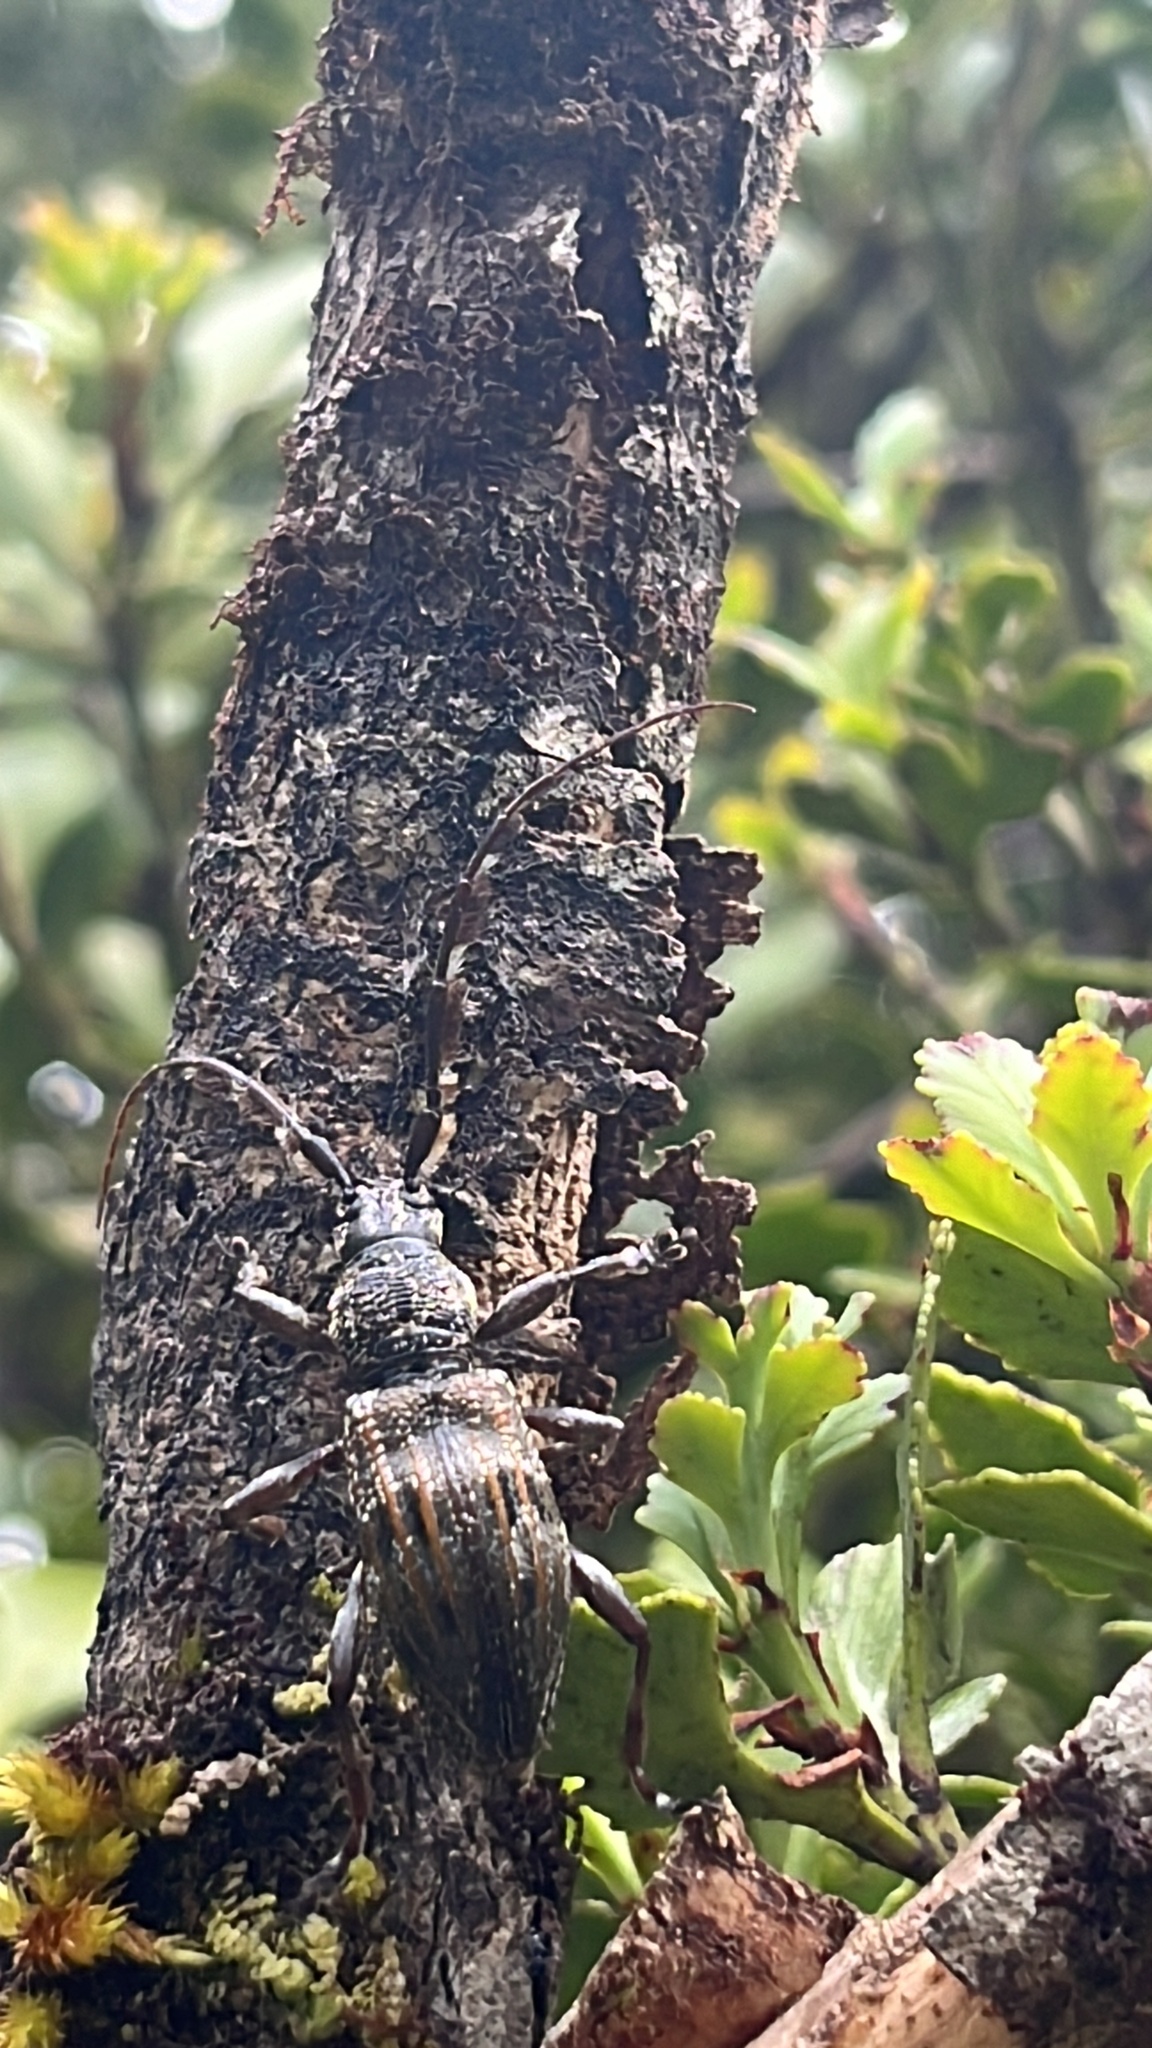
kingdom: Animalia
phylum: Arthropoda
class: Insecta
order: Coleoptera
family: Cerambycidae
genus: Hexatricha
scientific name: Hexatricha pulverulenta
